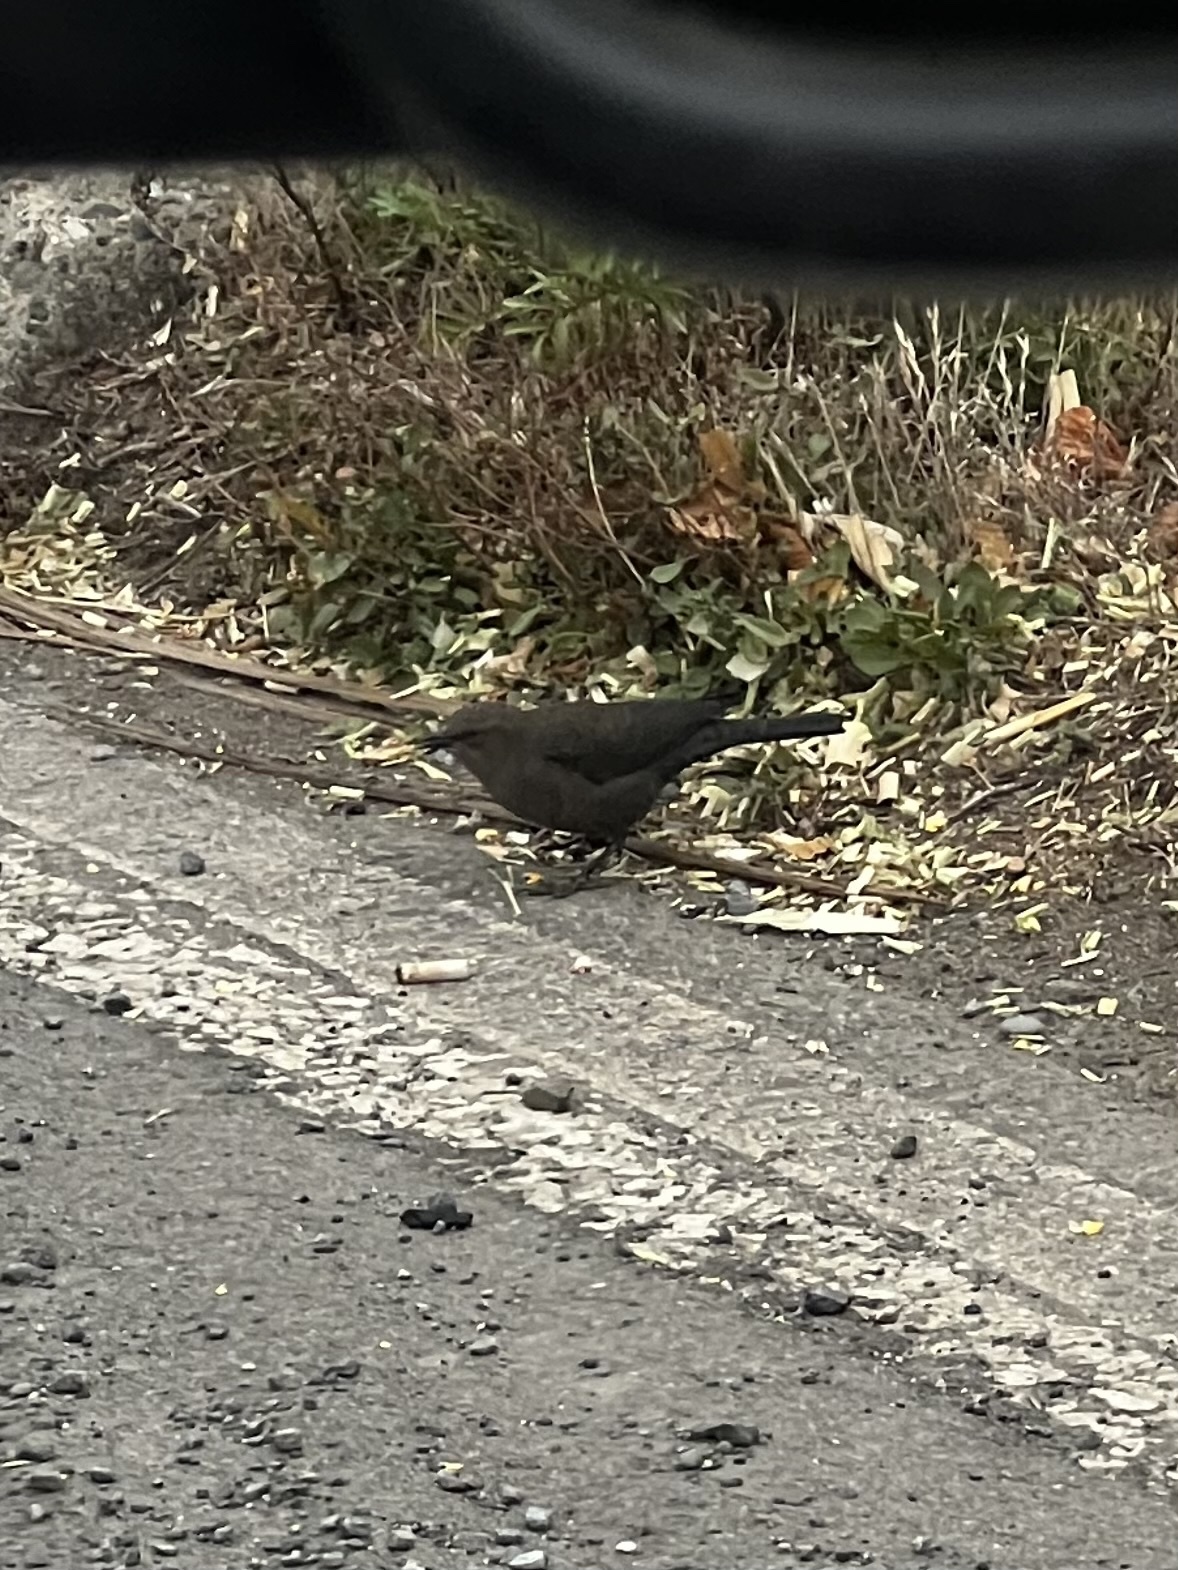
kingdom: Animalia
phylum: Chordata
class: Aves
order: Passeriformes
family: Icteridae
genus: Euphagus
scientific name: Euphagus cyanocephalus
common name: Brewer's blackbird
